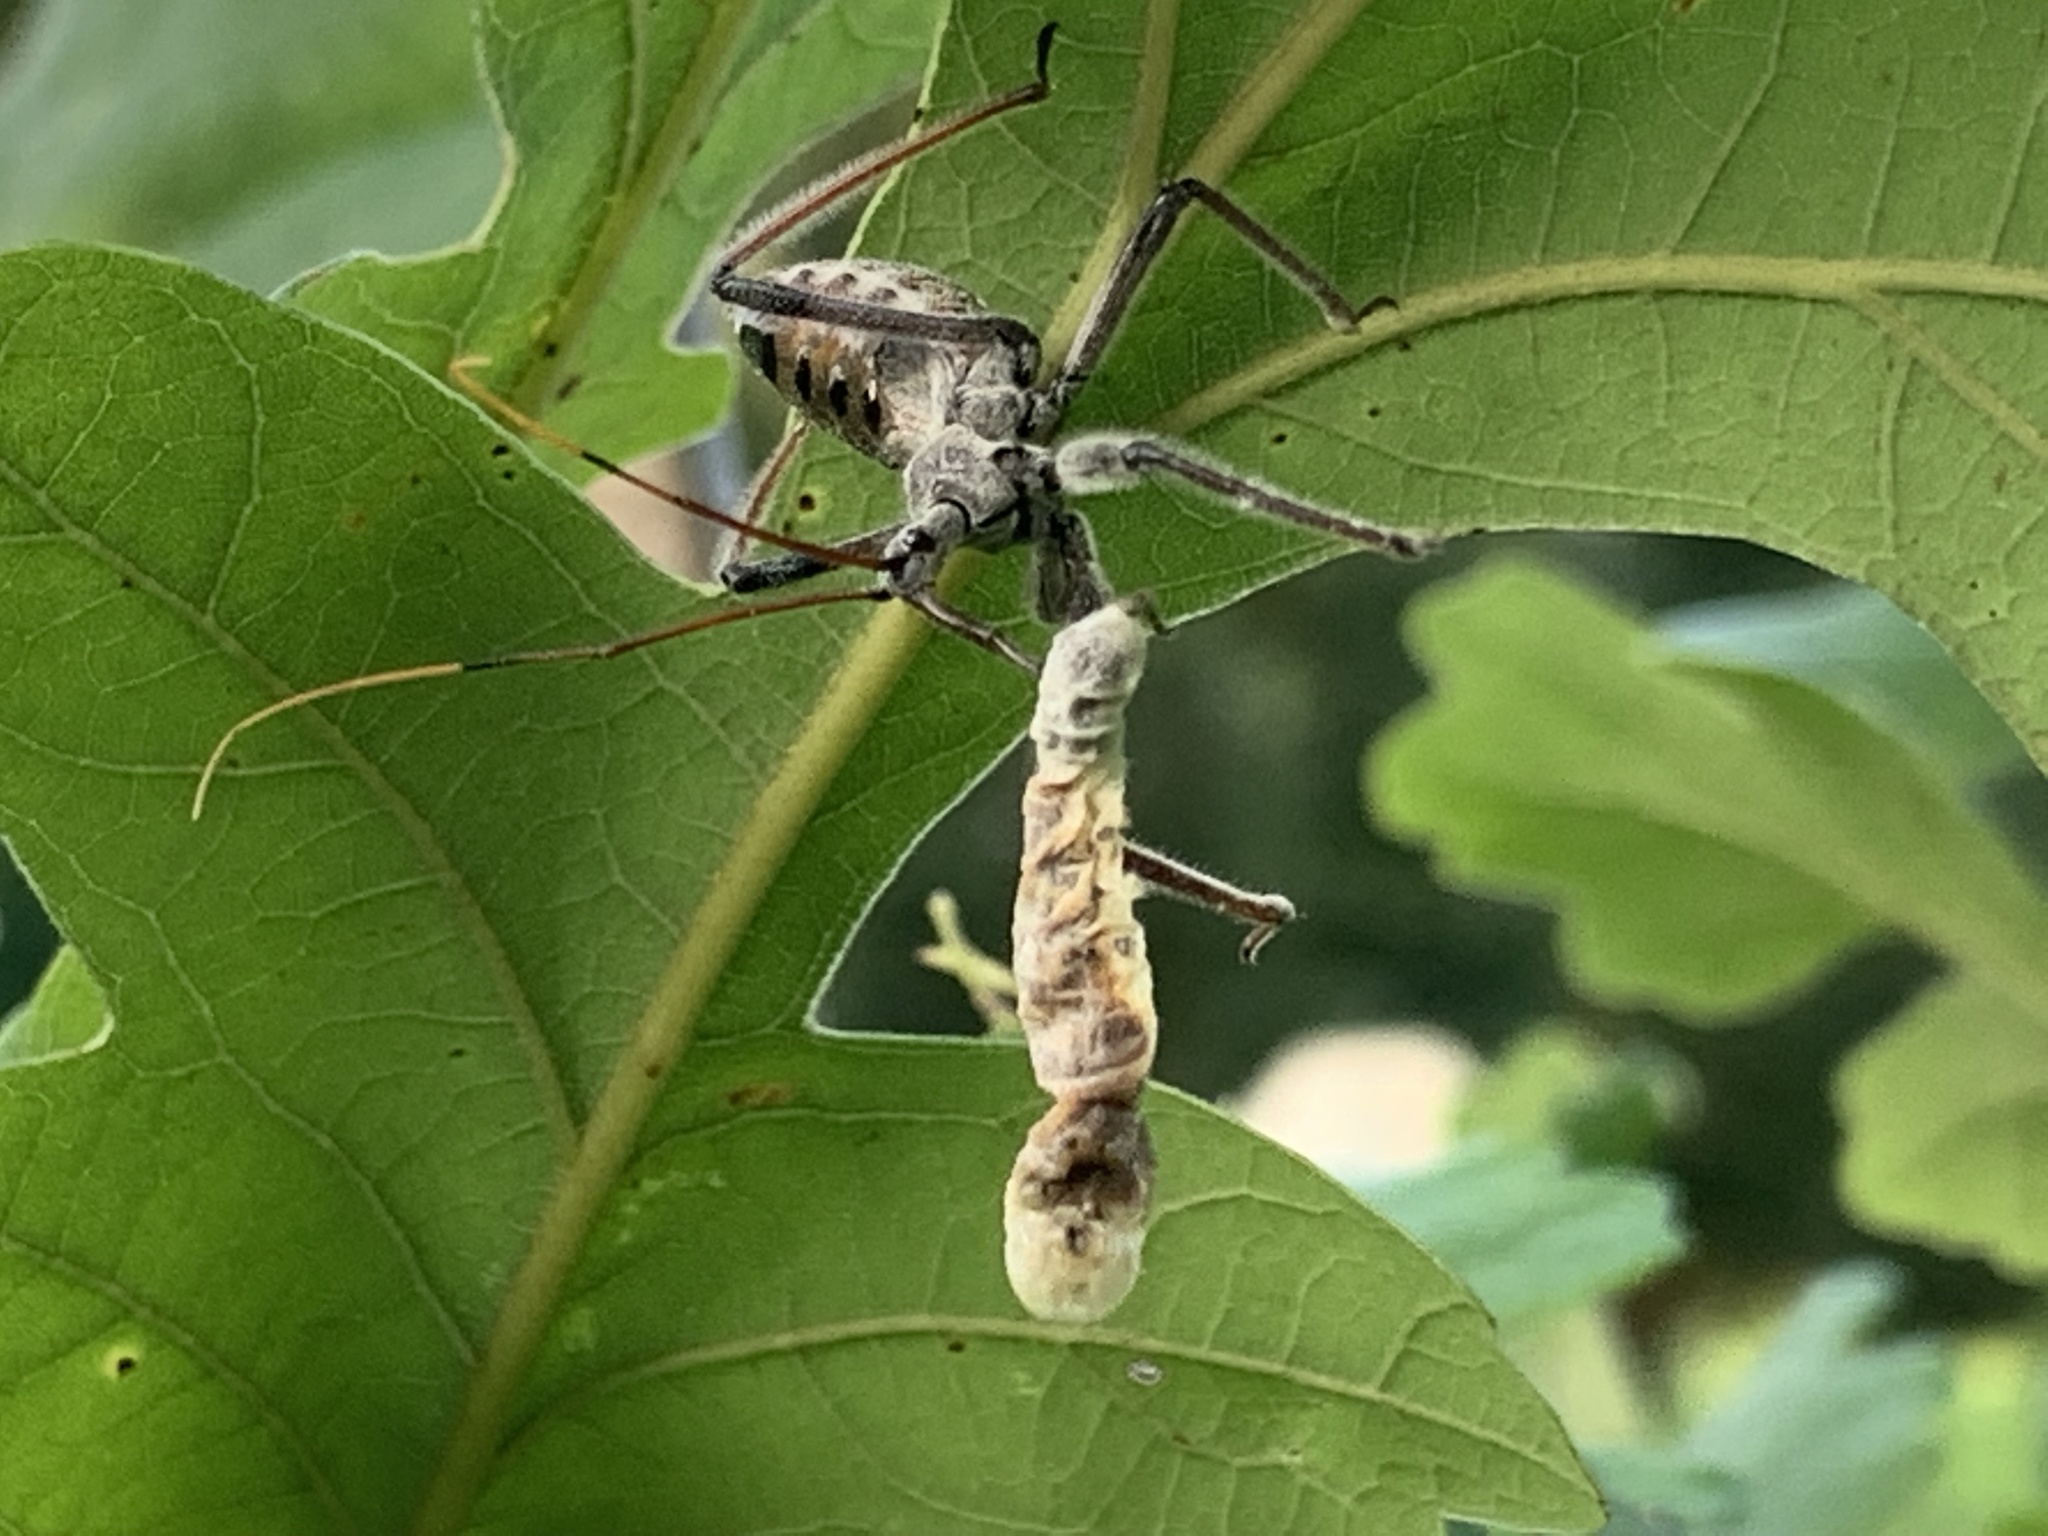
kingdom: Animalia
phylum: Arthropoda
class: Insecta
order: Hemiptera
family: Reduviidae
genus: Arilus
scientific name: Arilus cristatus
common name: North american wheel bug
